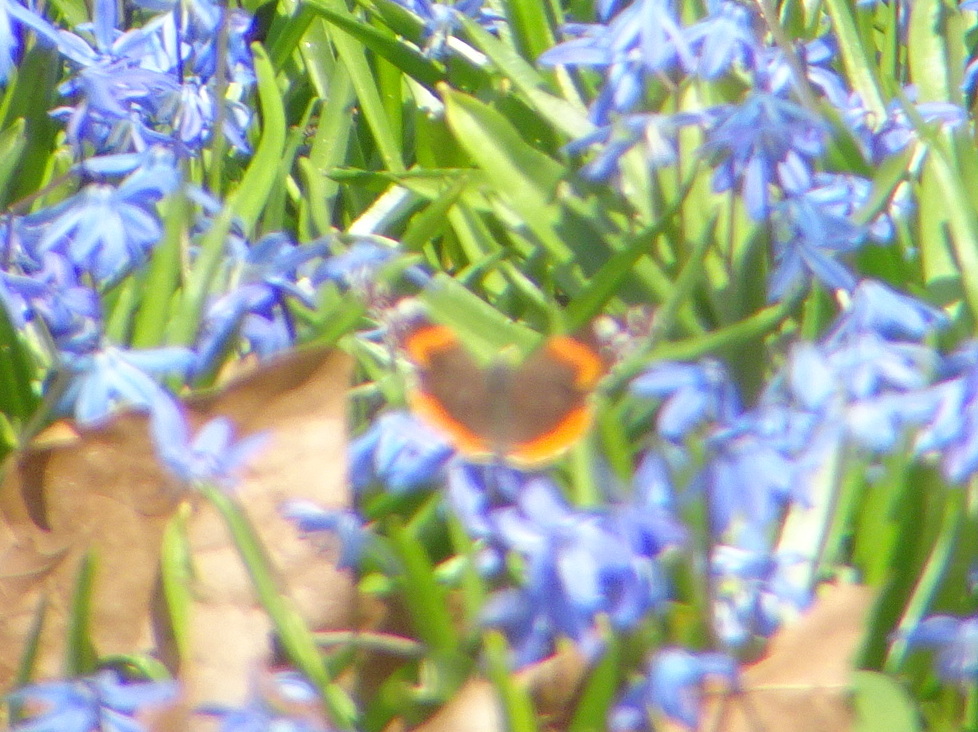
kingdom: Animalia
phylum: Arthropoda
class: Insecta
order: Lepidoptera
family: Nymphalidae
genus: Vanessa
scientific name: Vanessa atalanta
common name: Red admiral
